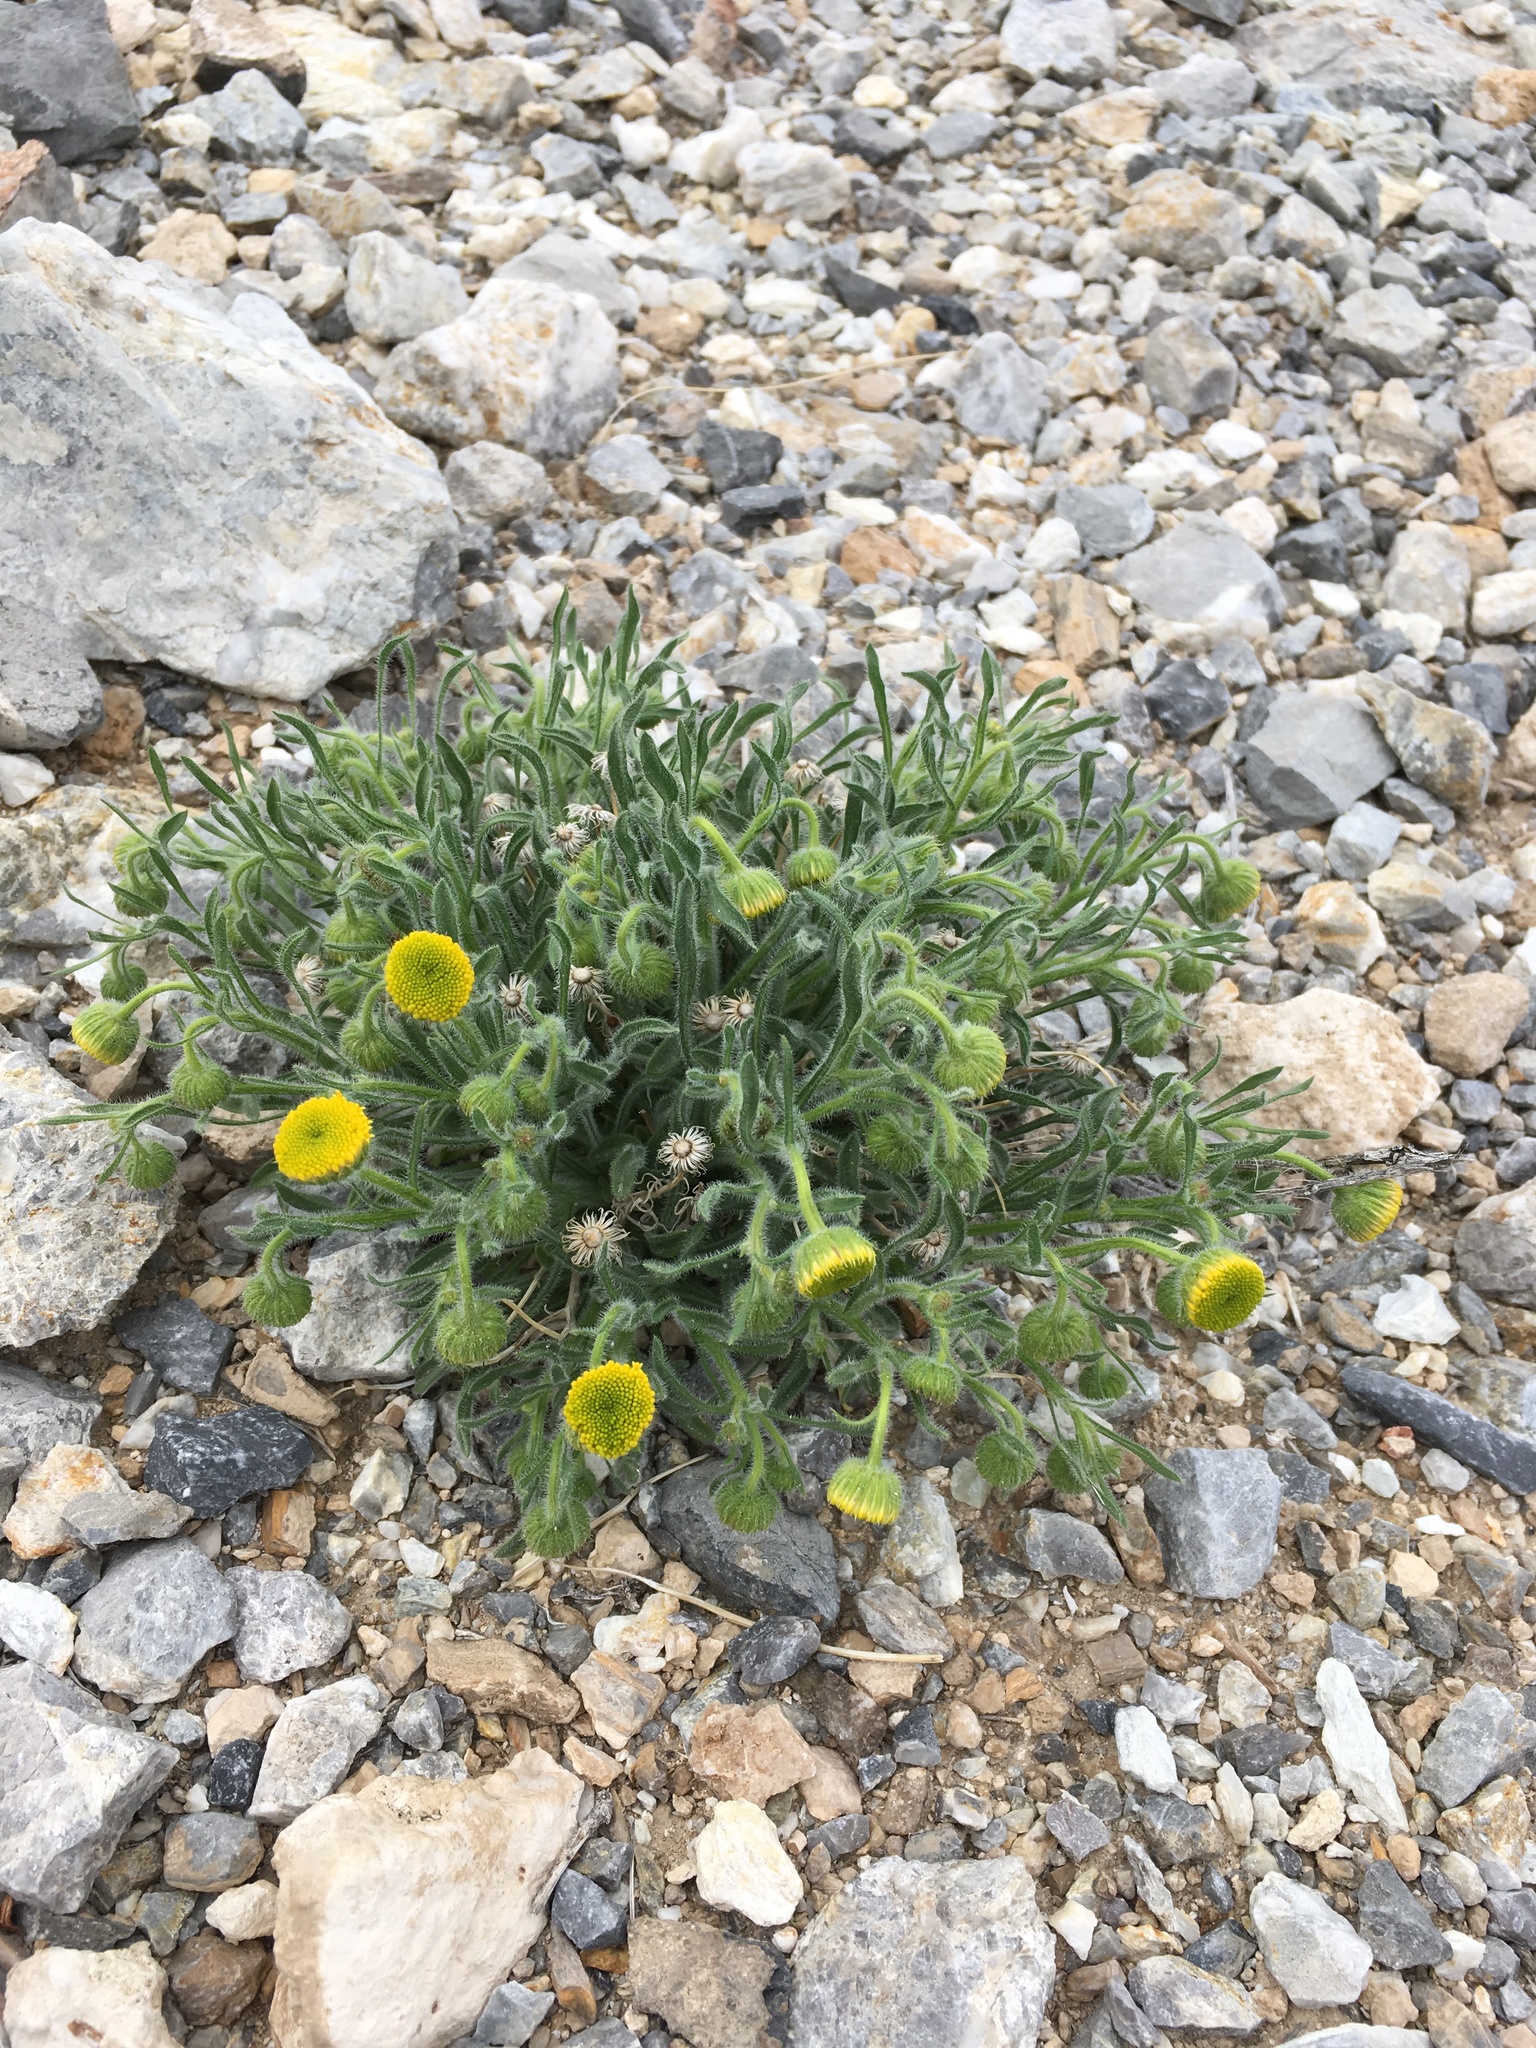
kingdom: Plantae
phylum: Tracheophyta
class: Magnoliopsida
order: Asterales
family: Asteraceae
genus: Erigeron
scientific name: Erigeron aphanactis
